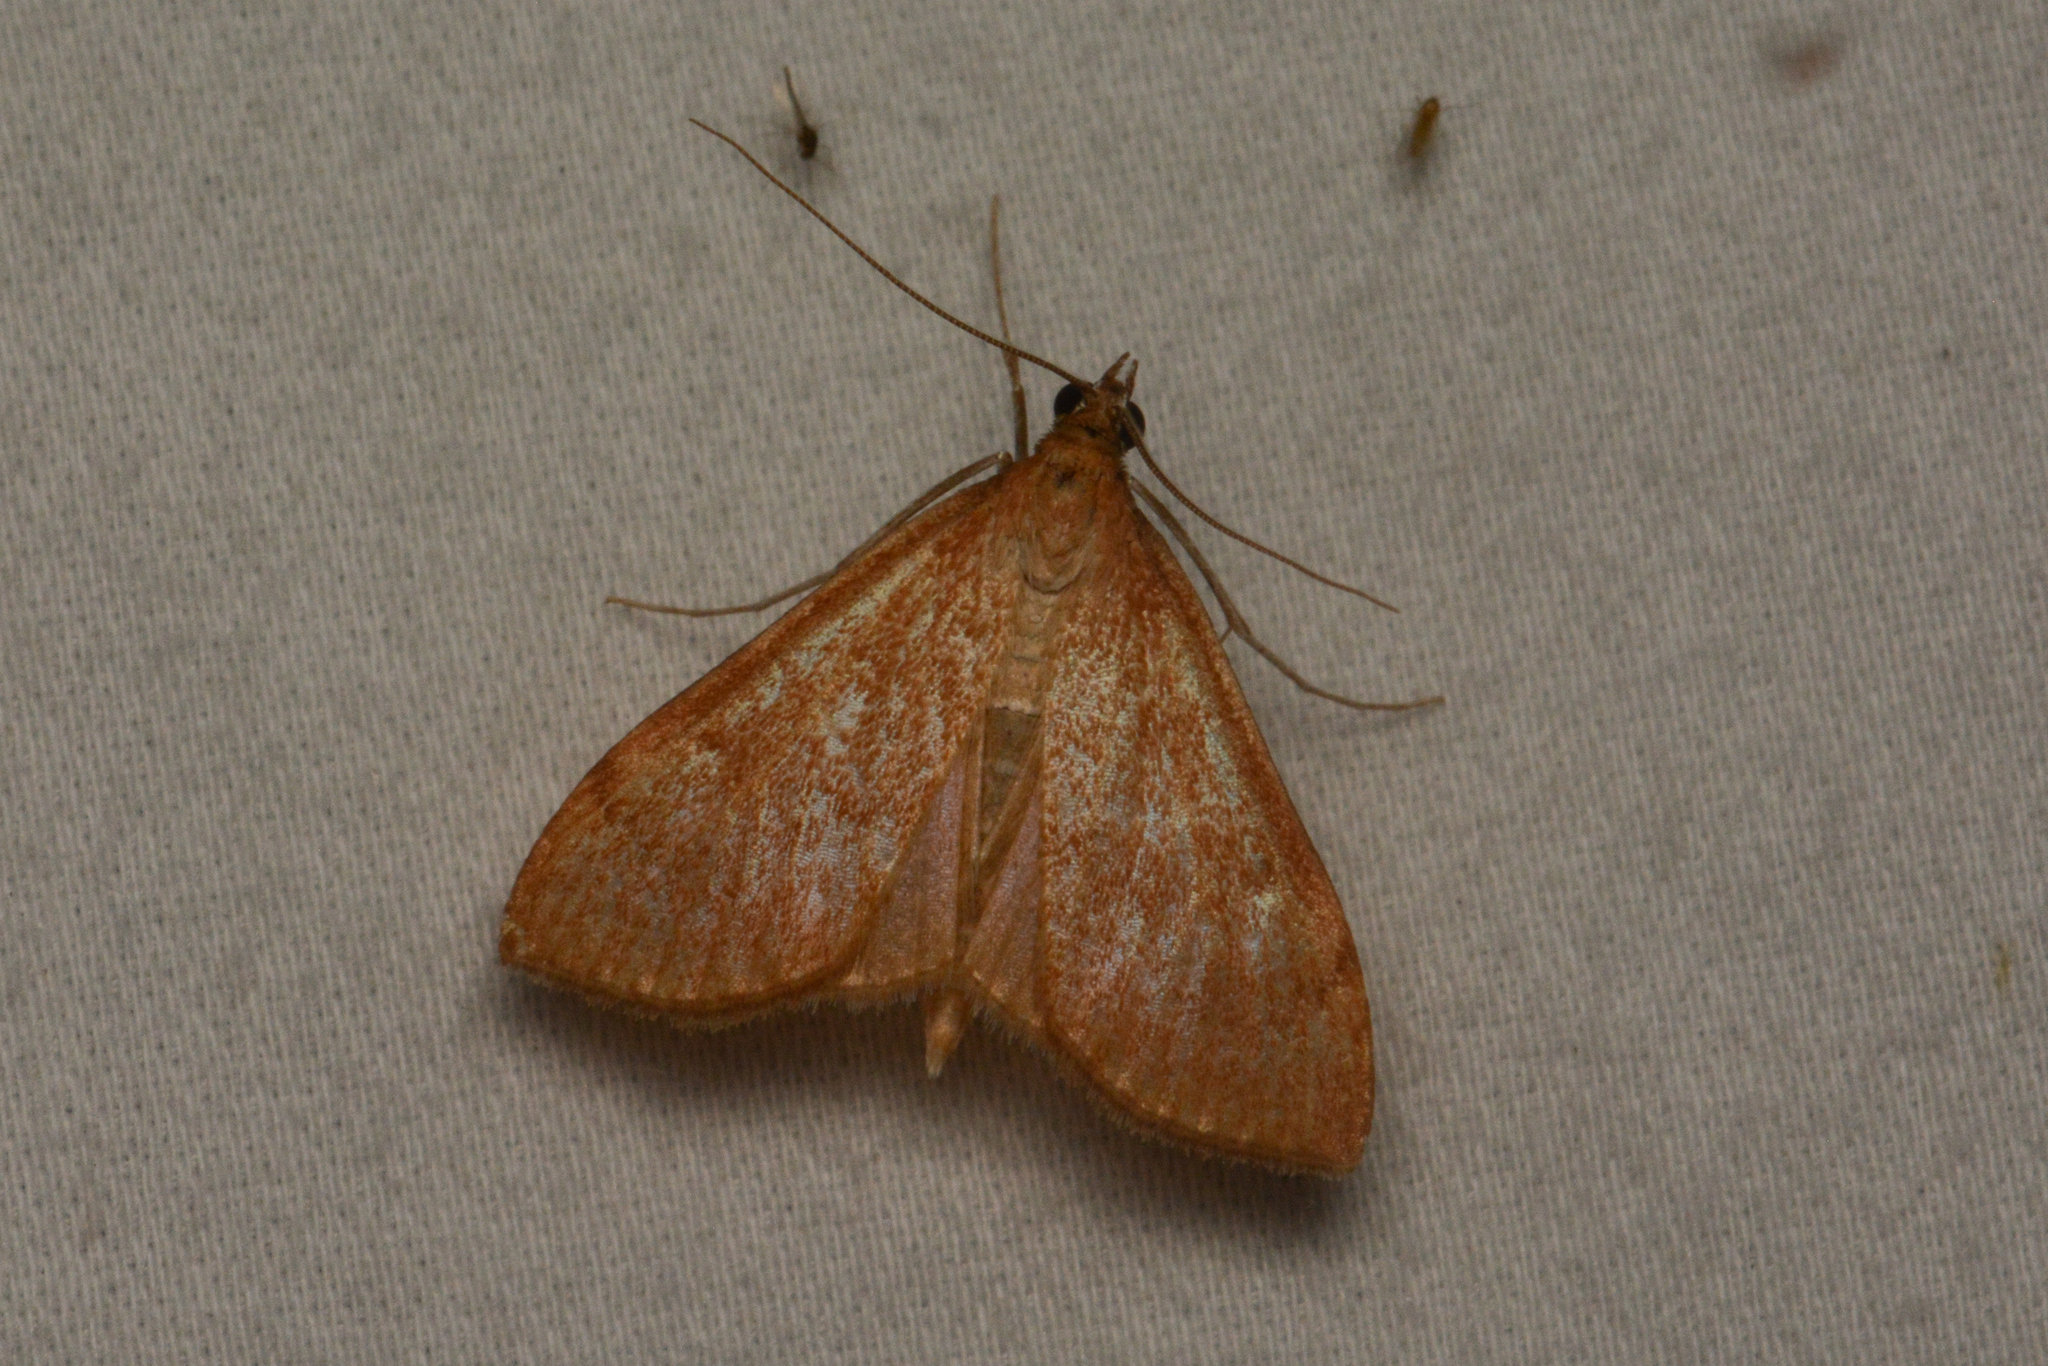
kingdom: Animalia
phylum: Arthropoda
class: Insecta
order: Lepidoptera
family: Crambidae
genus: Saucrobotys
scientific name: Saucrobotys futilalis
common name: Dogbane saucrobotys moth
